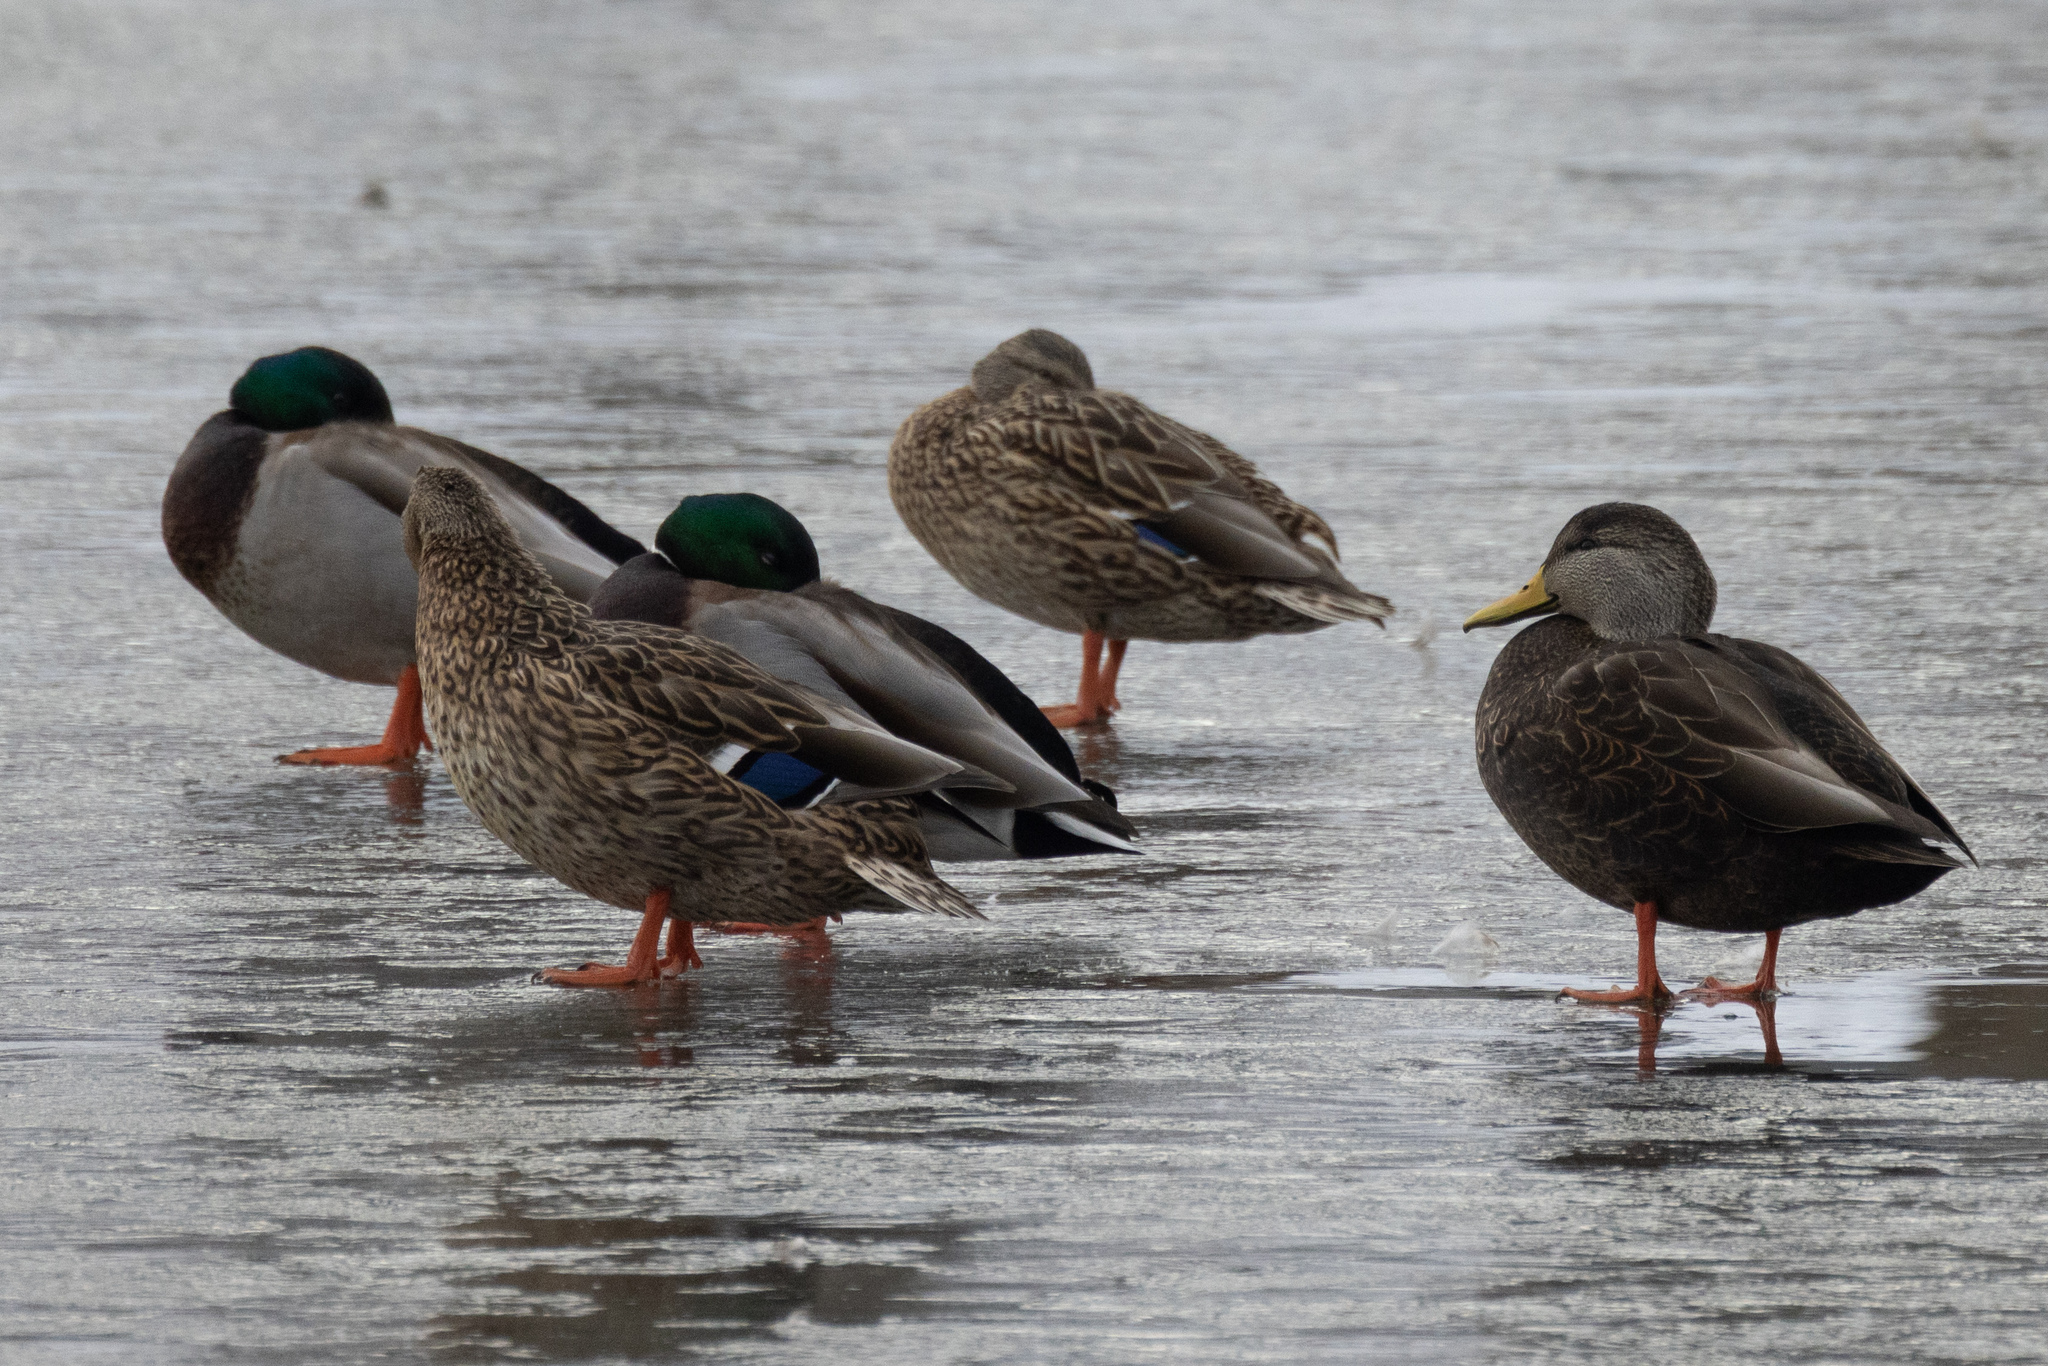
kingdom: Animalia
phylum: Chordata
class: Aves
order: Anseriformes
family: Anatidae
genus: Anas
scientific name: Anas platyrhynchos
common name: Mallard
